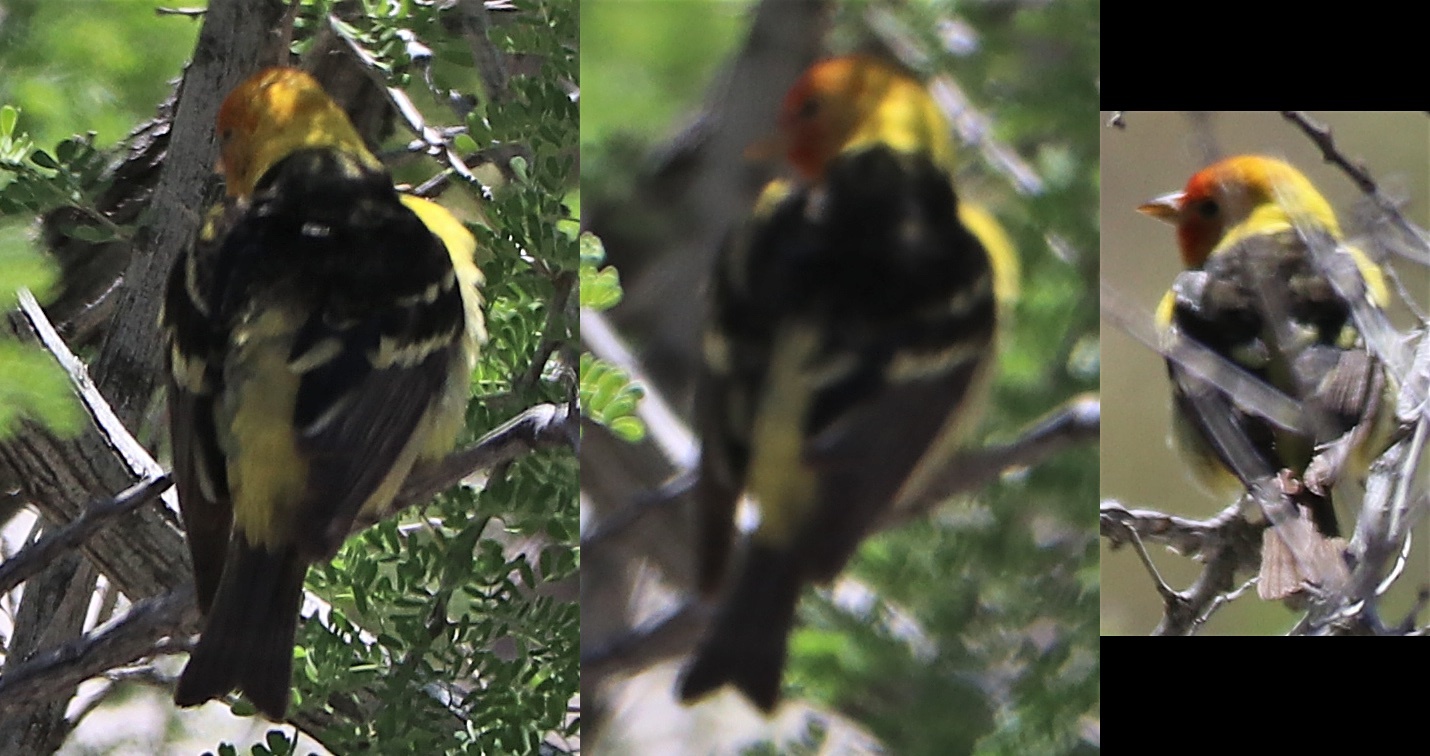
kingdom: Animalia
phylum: Chordata
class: Aves
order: Passeriformes
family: Cardinalidae
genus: Piranga
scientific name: Piranga ludoviciana
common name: Western tanager
